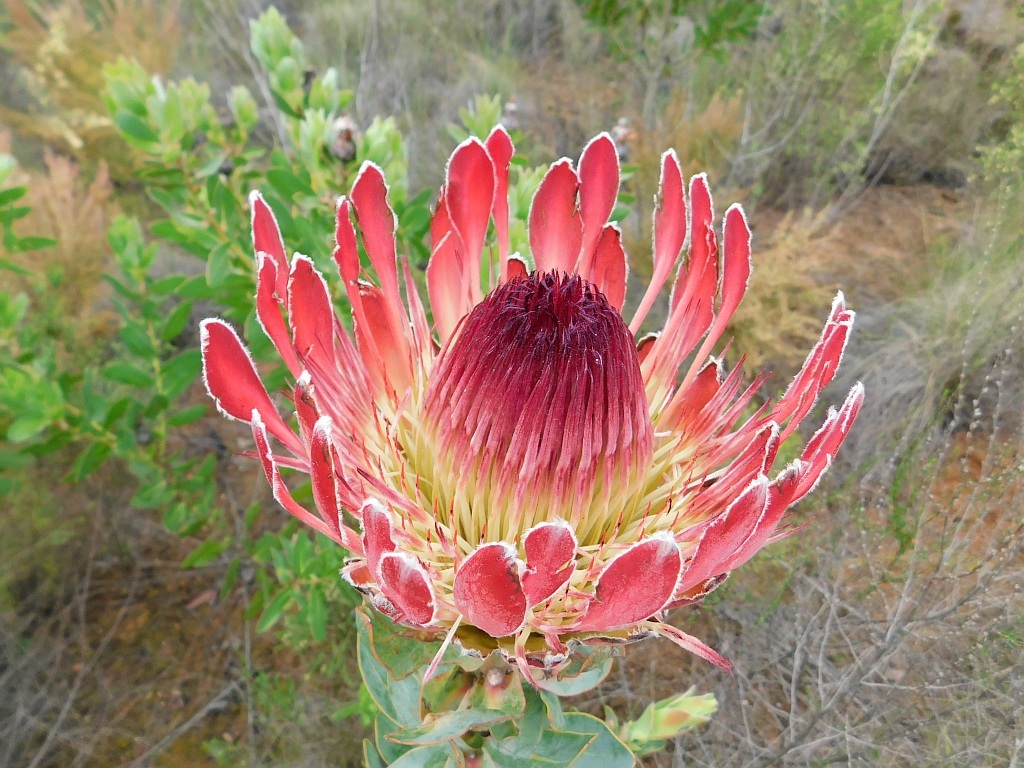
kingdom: Plantae
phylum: Tracheophyta
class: Magnoliopsida
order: Proteales
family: Proteaceae
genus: Protea
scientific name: Protea eximia
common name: Broad-leaved sugarbush
